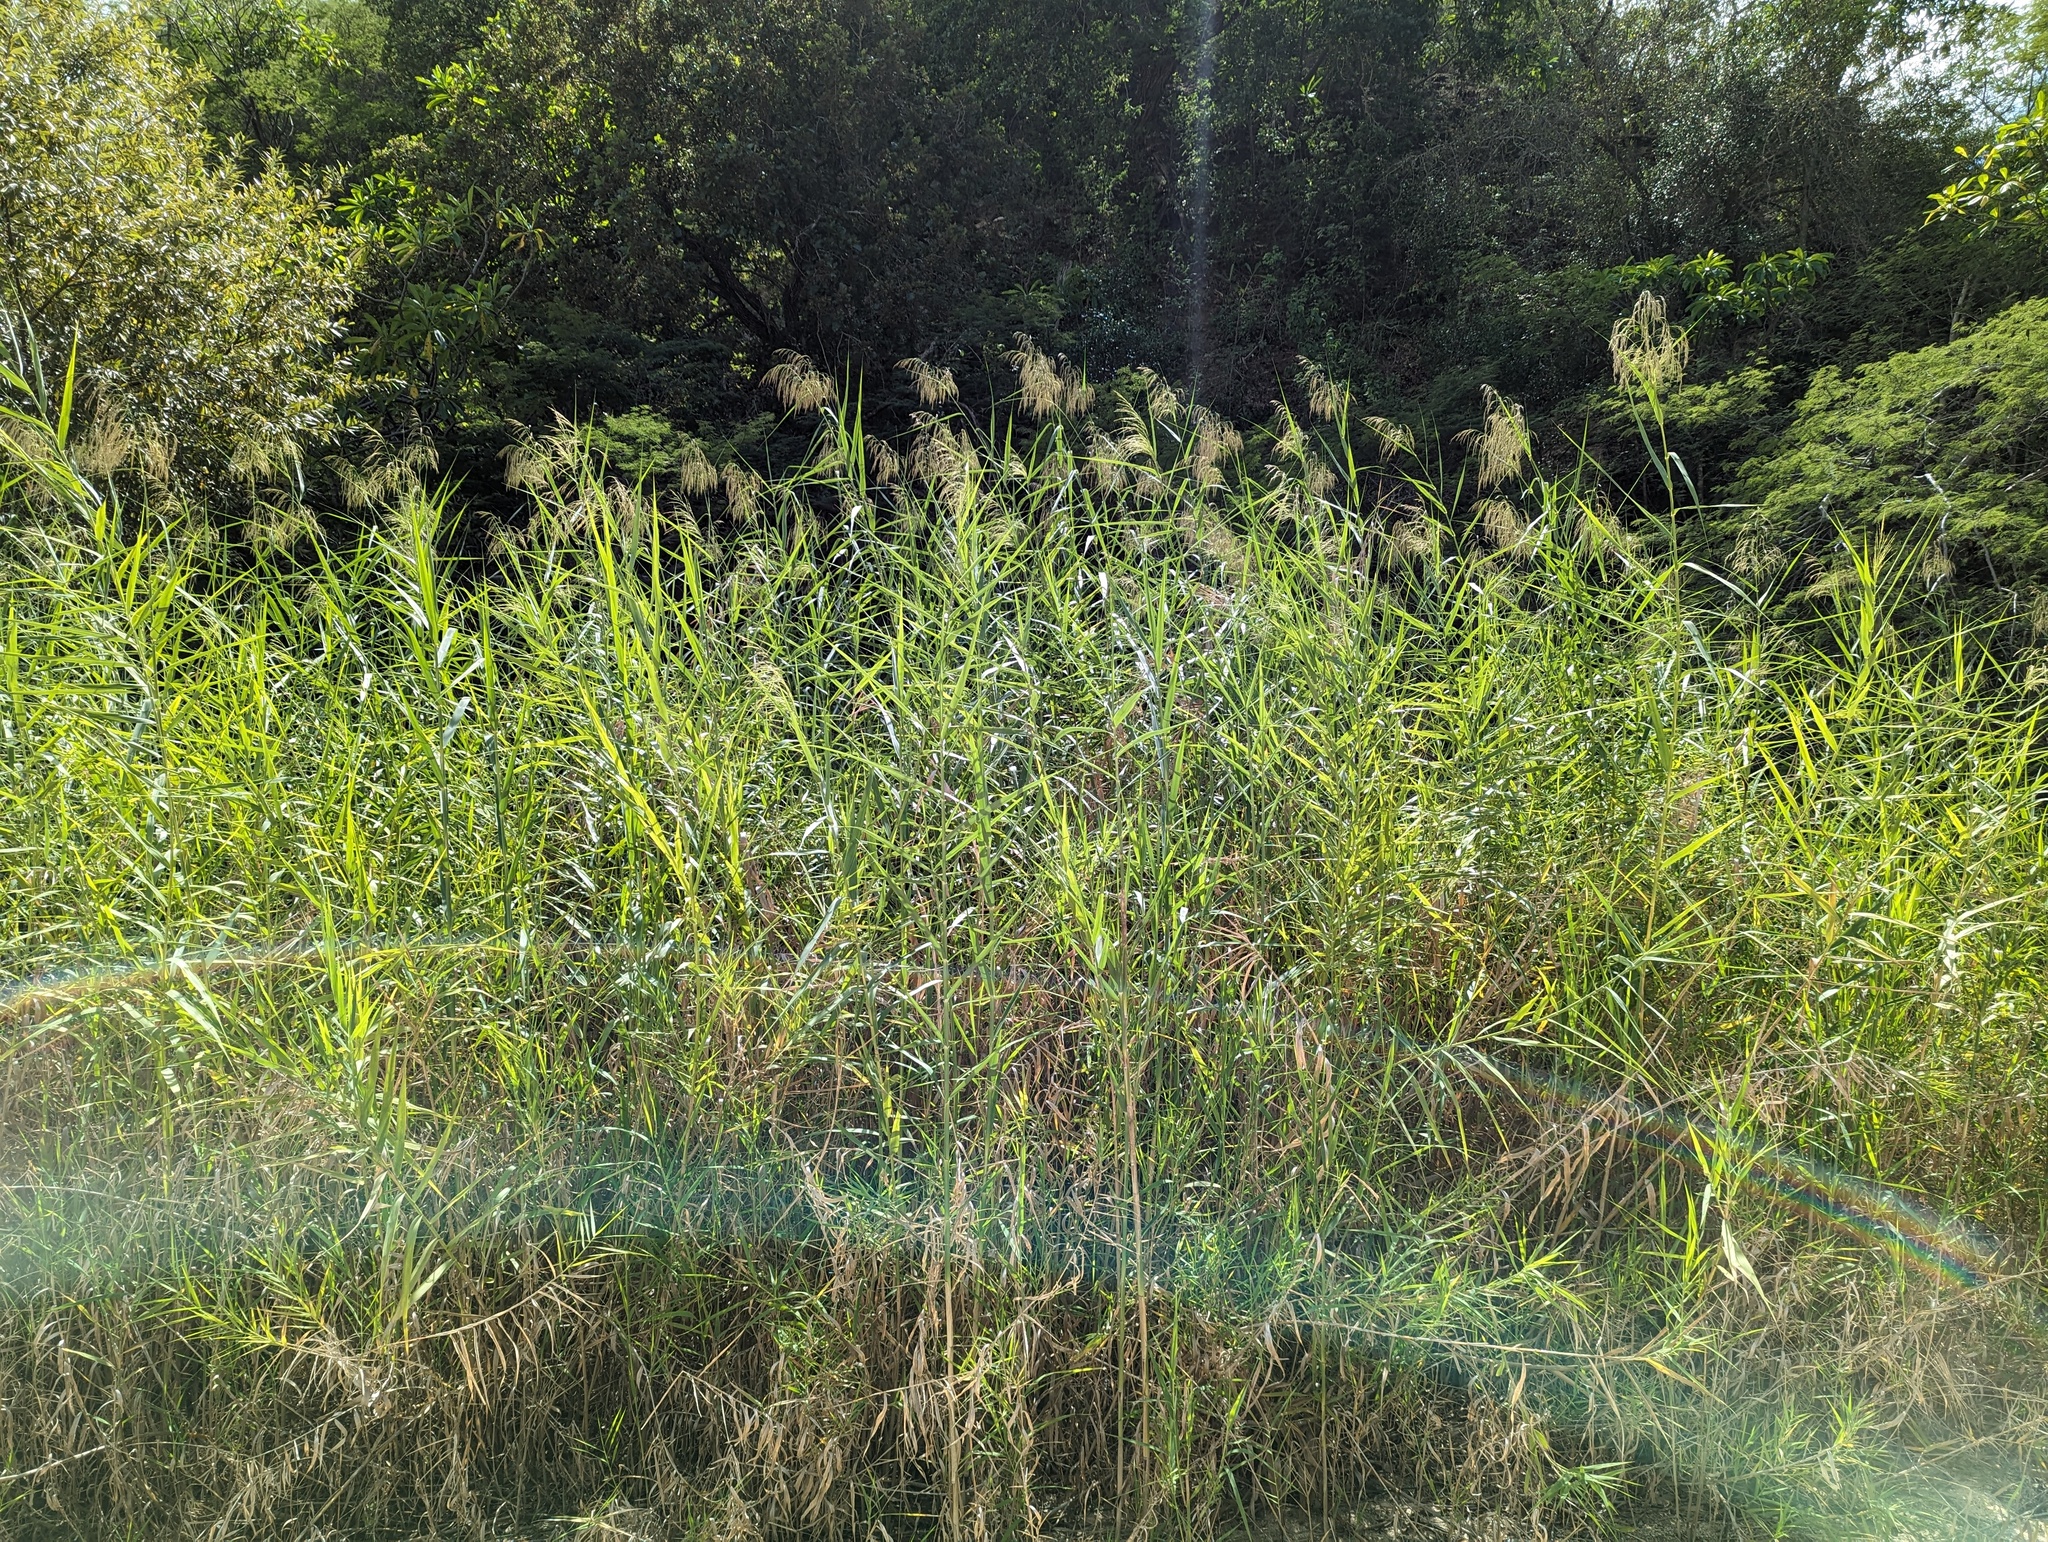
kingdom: Plantae
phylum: Tracheophyta
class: Liliopsida
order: Poales
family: Poaceae
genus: Phragmites
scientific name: Phragmites australis
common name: Common reed
